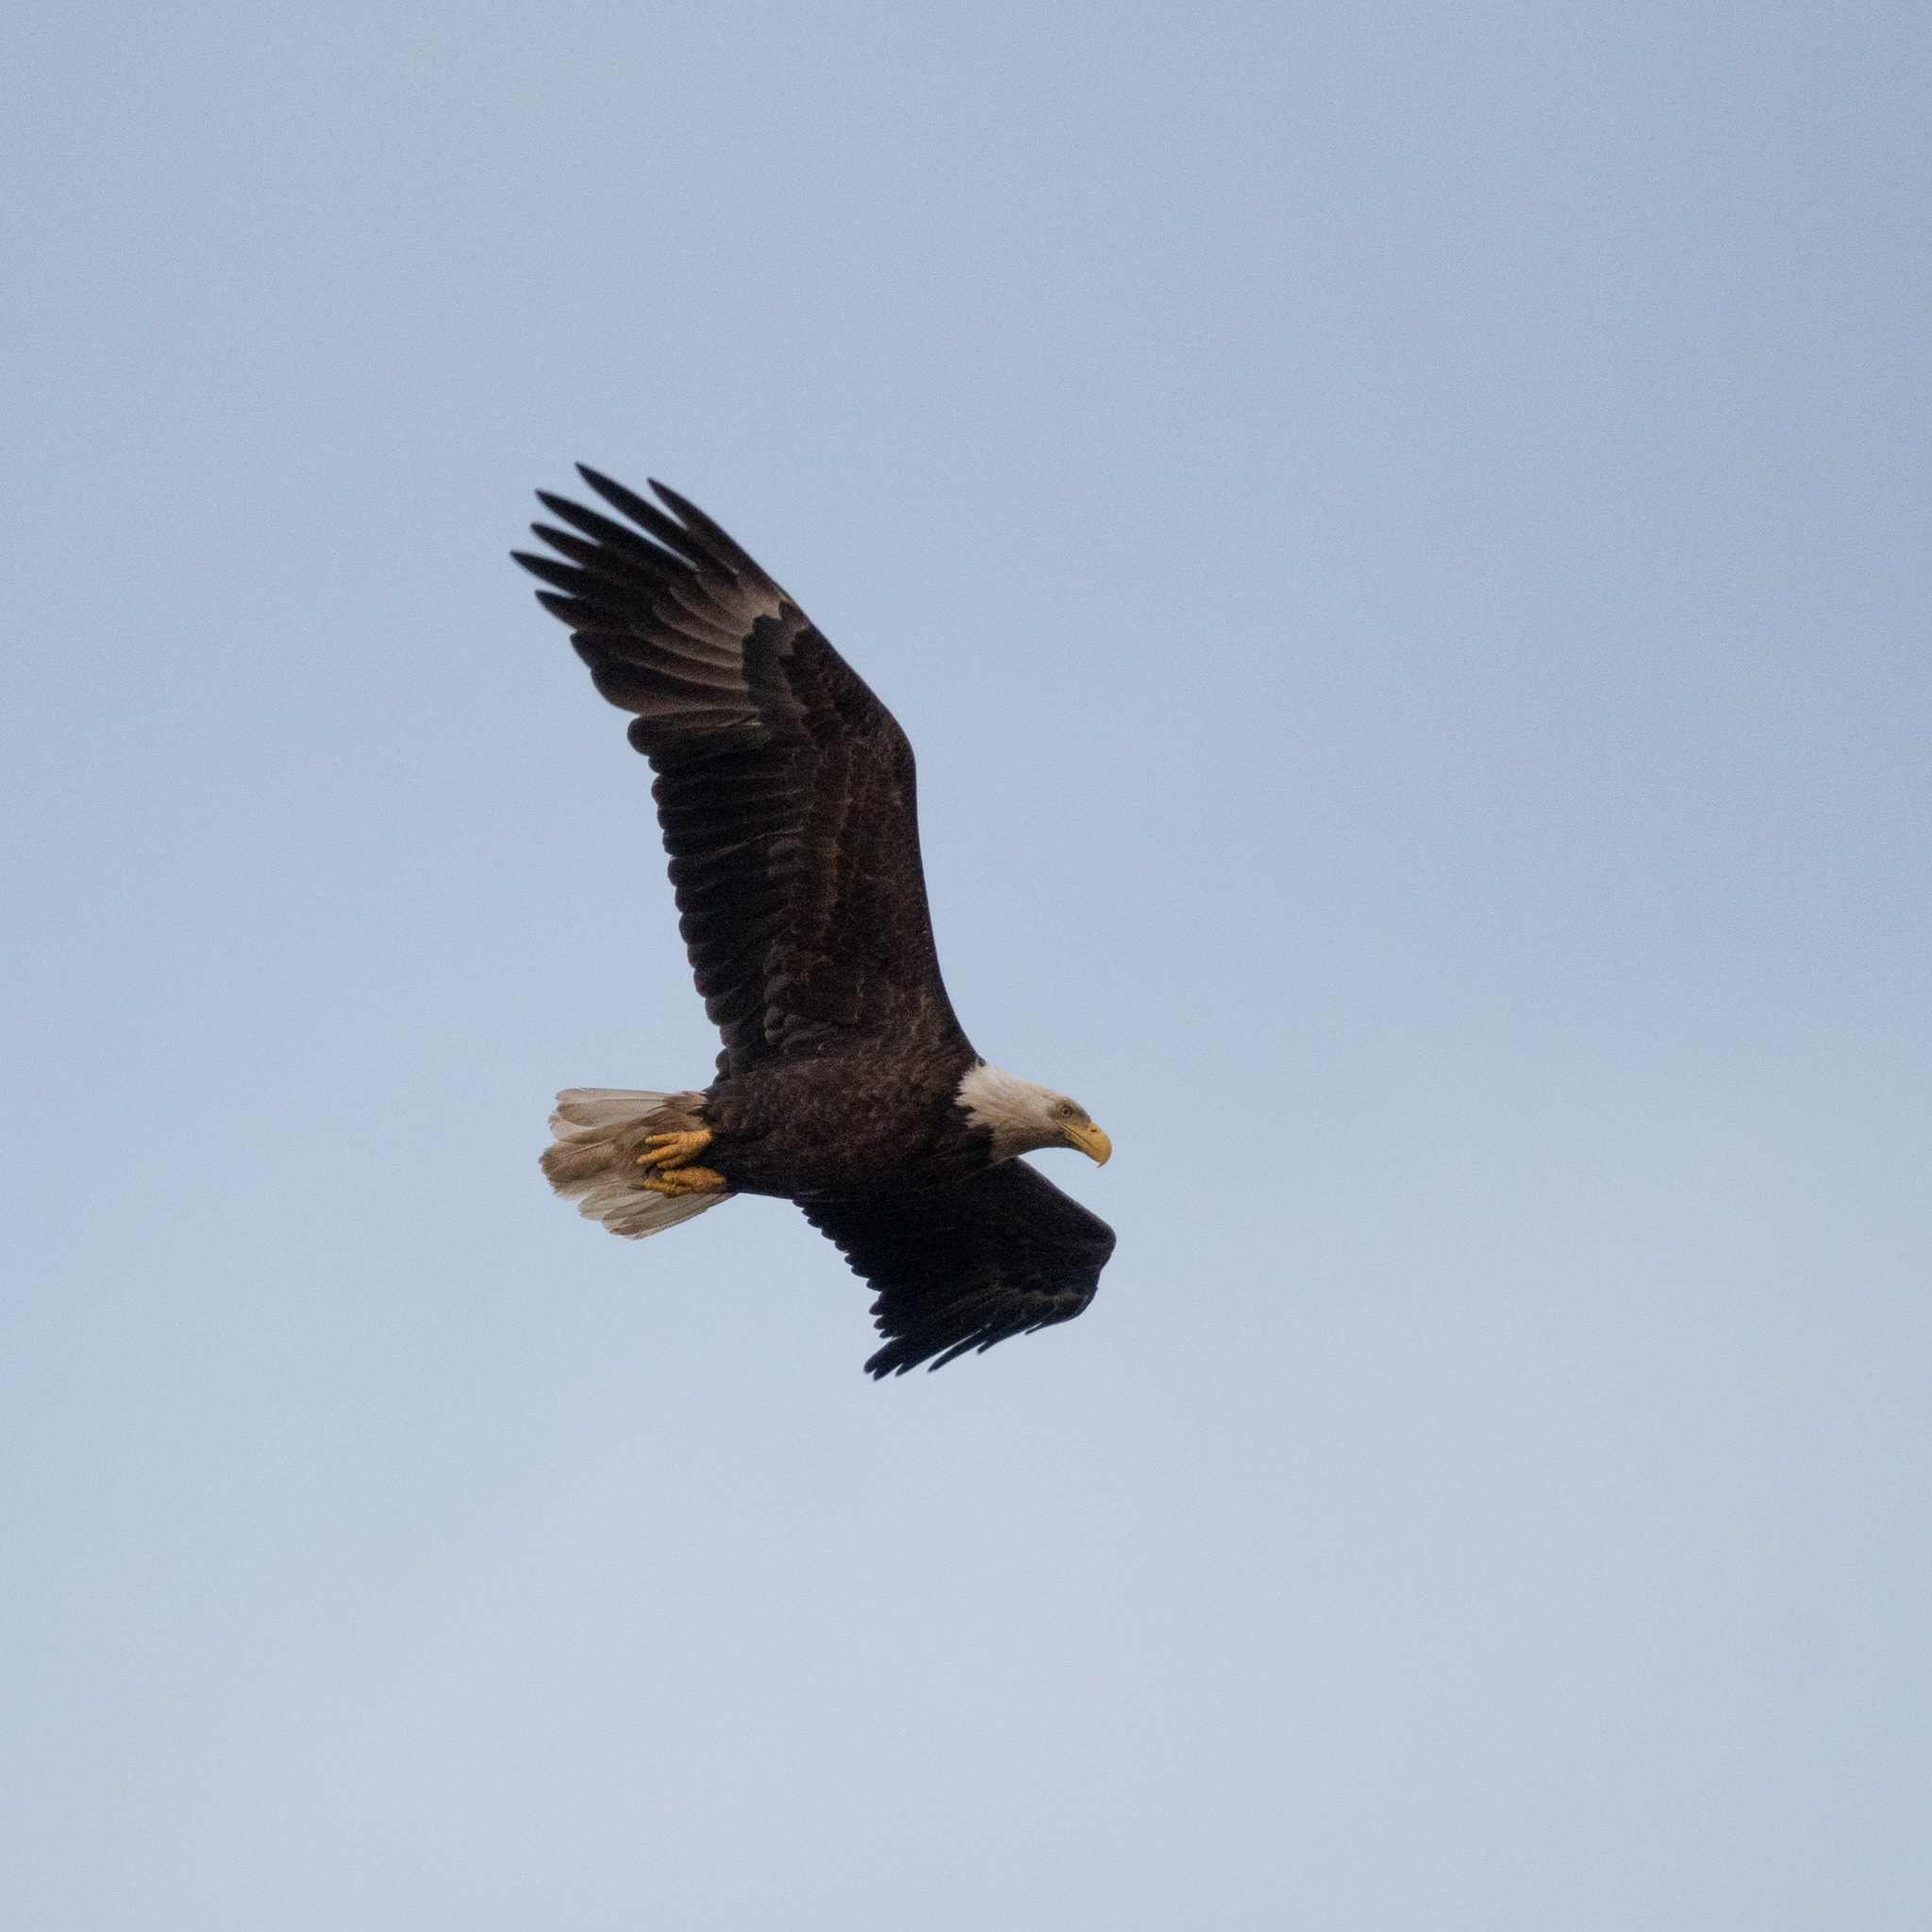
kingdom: Animalia
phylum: Chordata
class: Aves
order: Accipitriformes
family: Accipitridae
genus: Haliaeetus
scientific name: Haliaeetus leucocephalus
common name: Bald eagle
